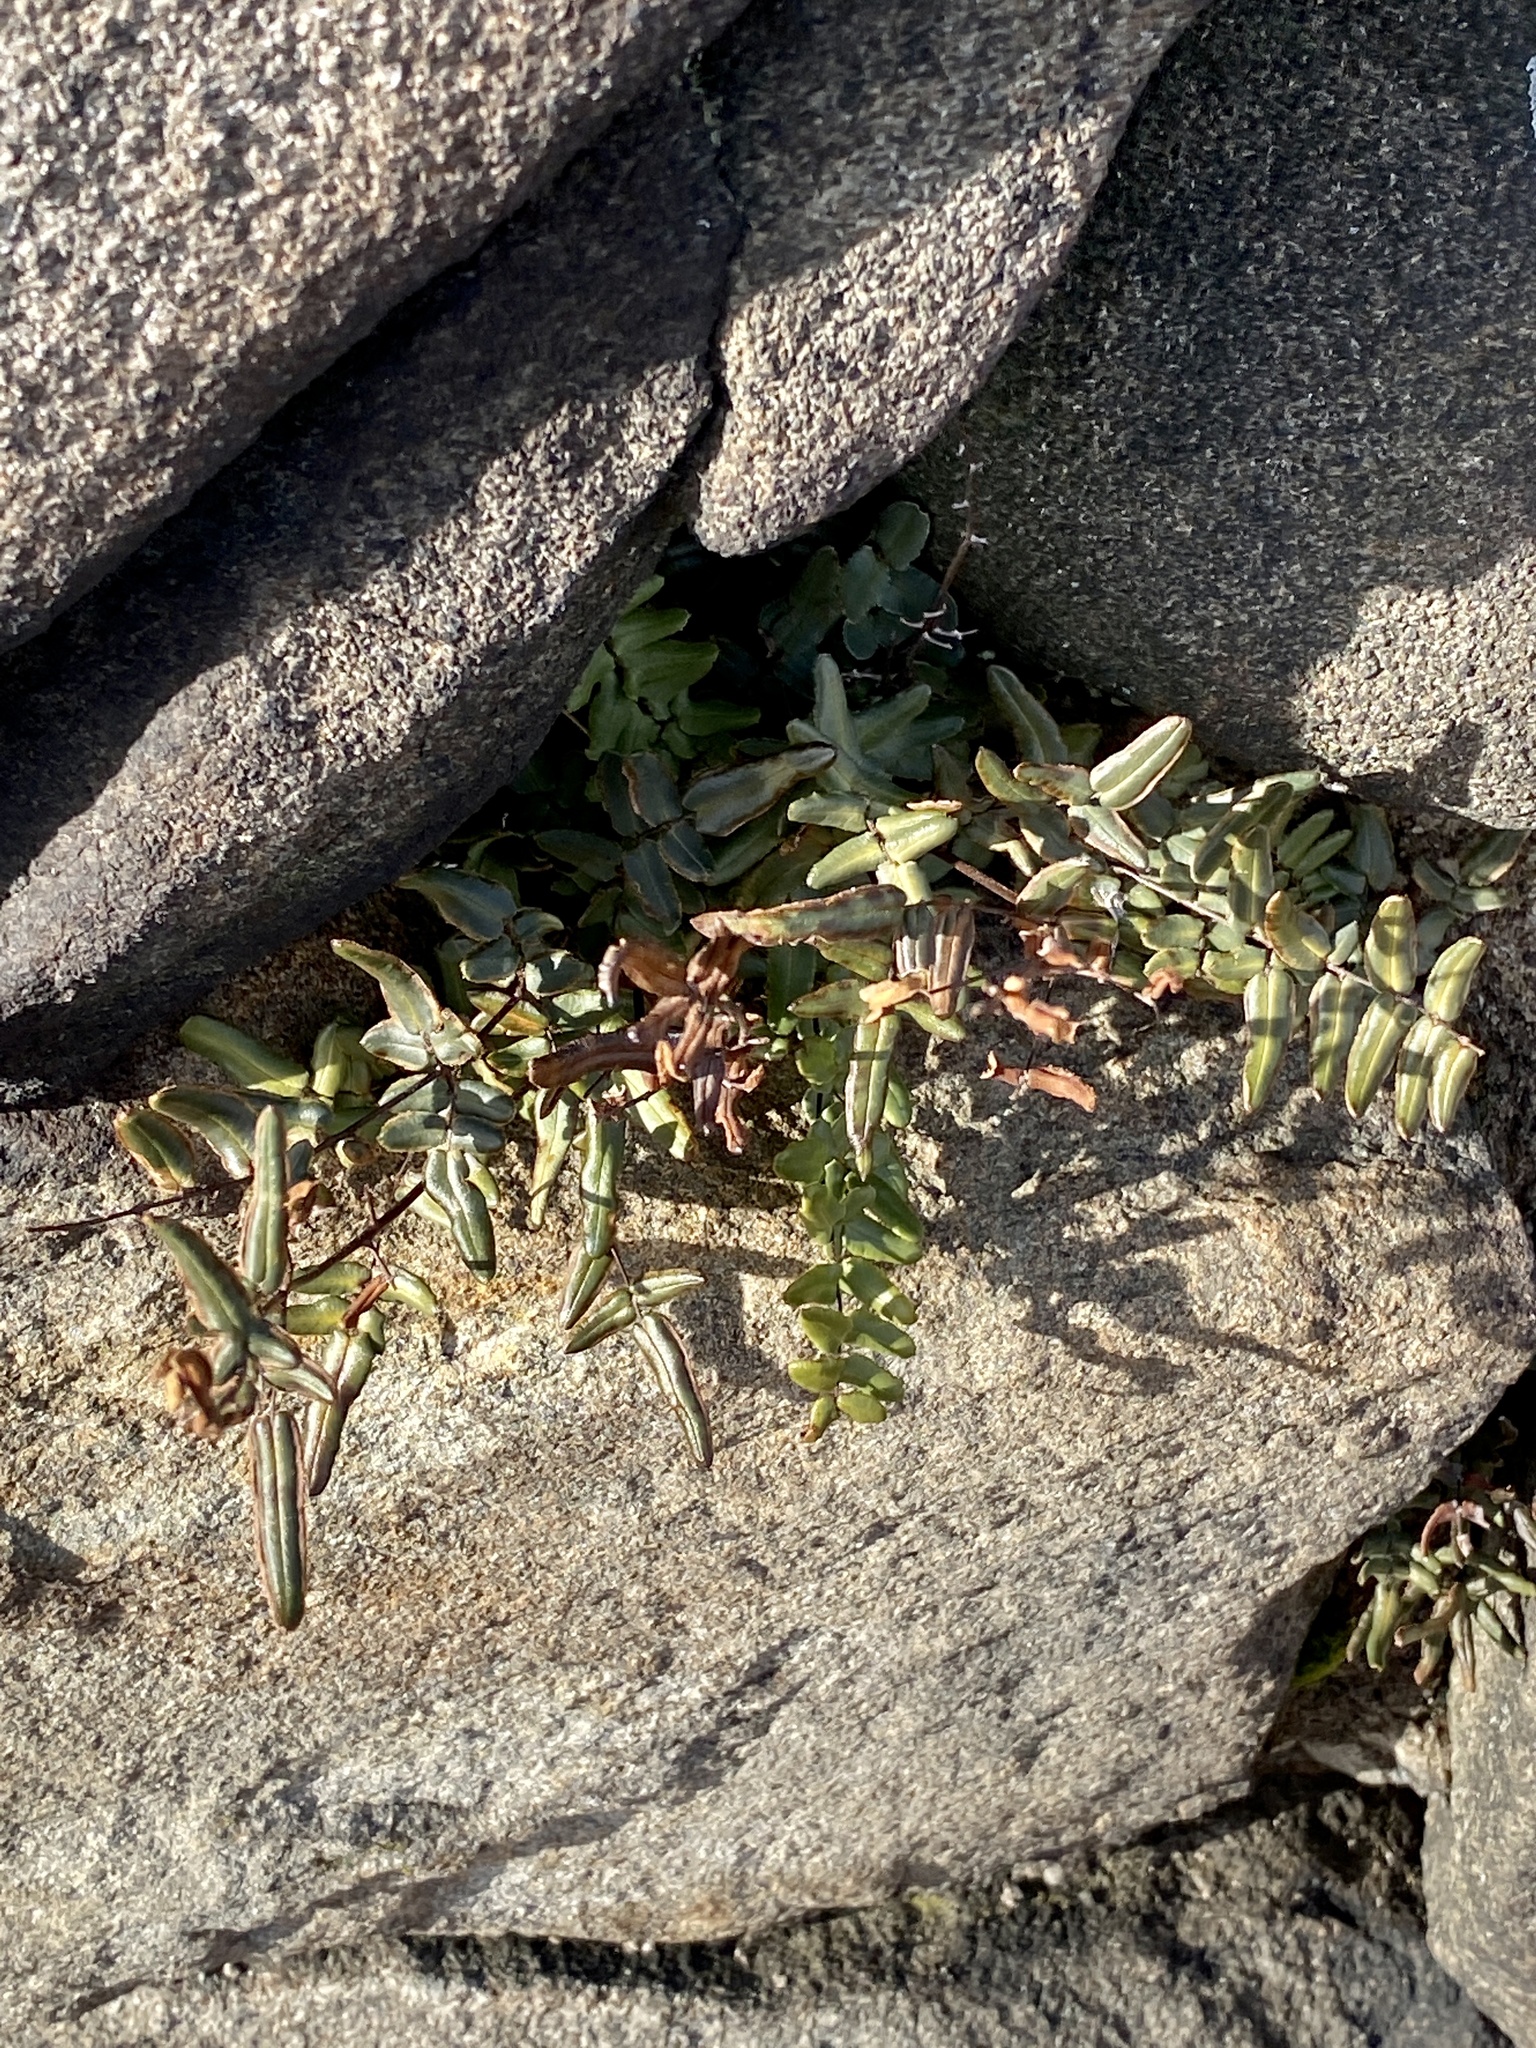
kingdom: Plantae
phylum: Tracheophyta
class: Polypodiopsida
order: Polypodiales
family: Pteridaceae
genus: Pellaea
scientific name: Pellaea atropurpurea
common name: Hairy cliffbrake
